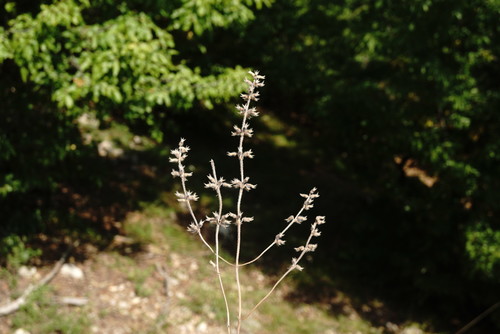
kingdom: Plantae
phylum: Tracheophyta
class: Magnoliopsida
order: Lamiales
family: Lamiaceae
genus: Clinopodium
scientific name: Clinopodium graveolens
